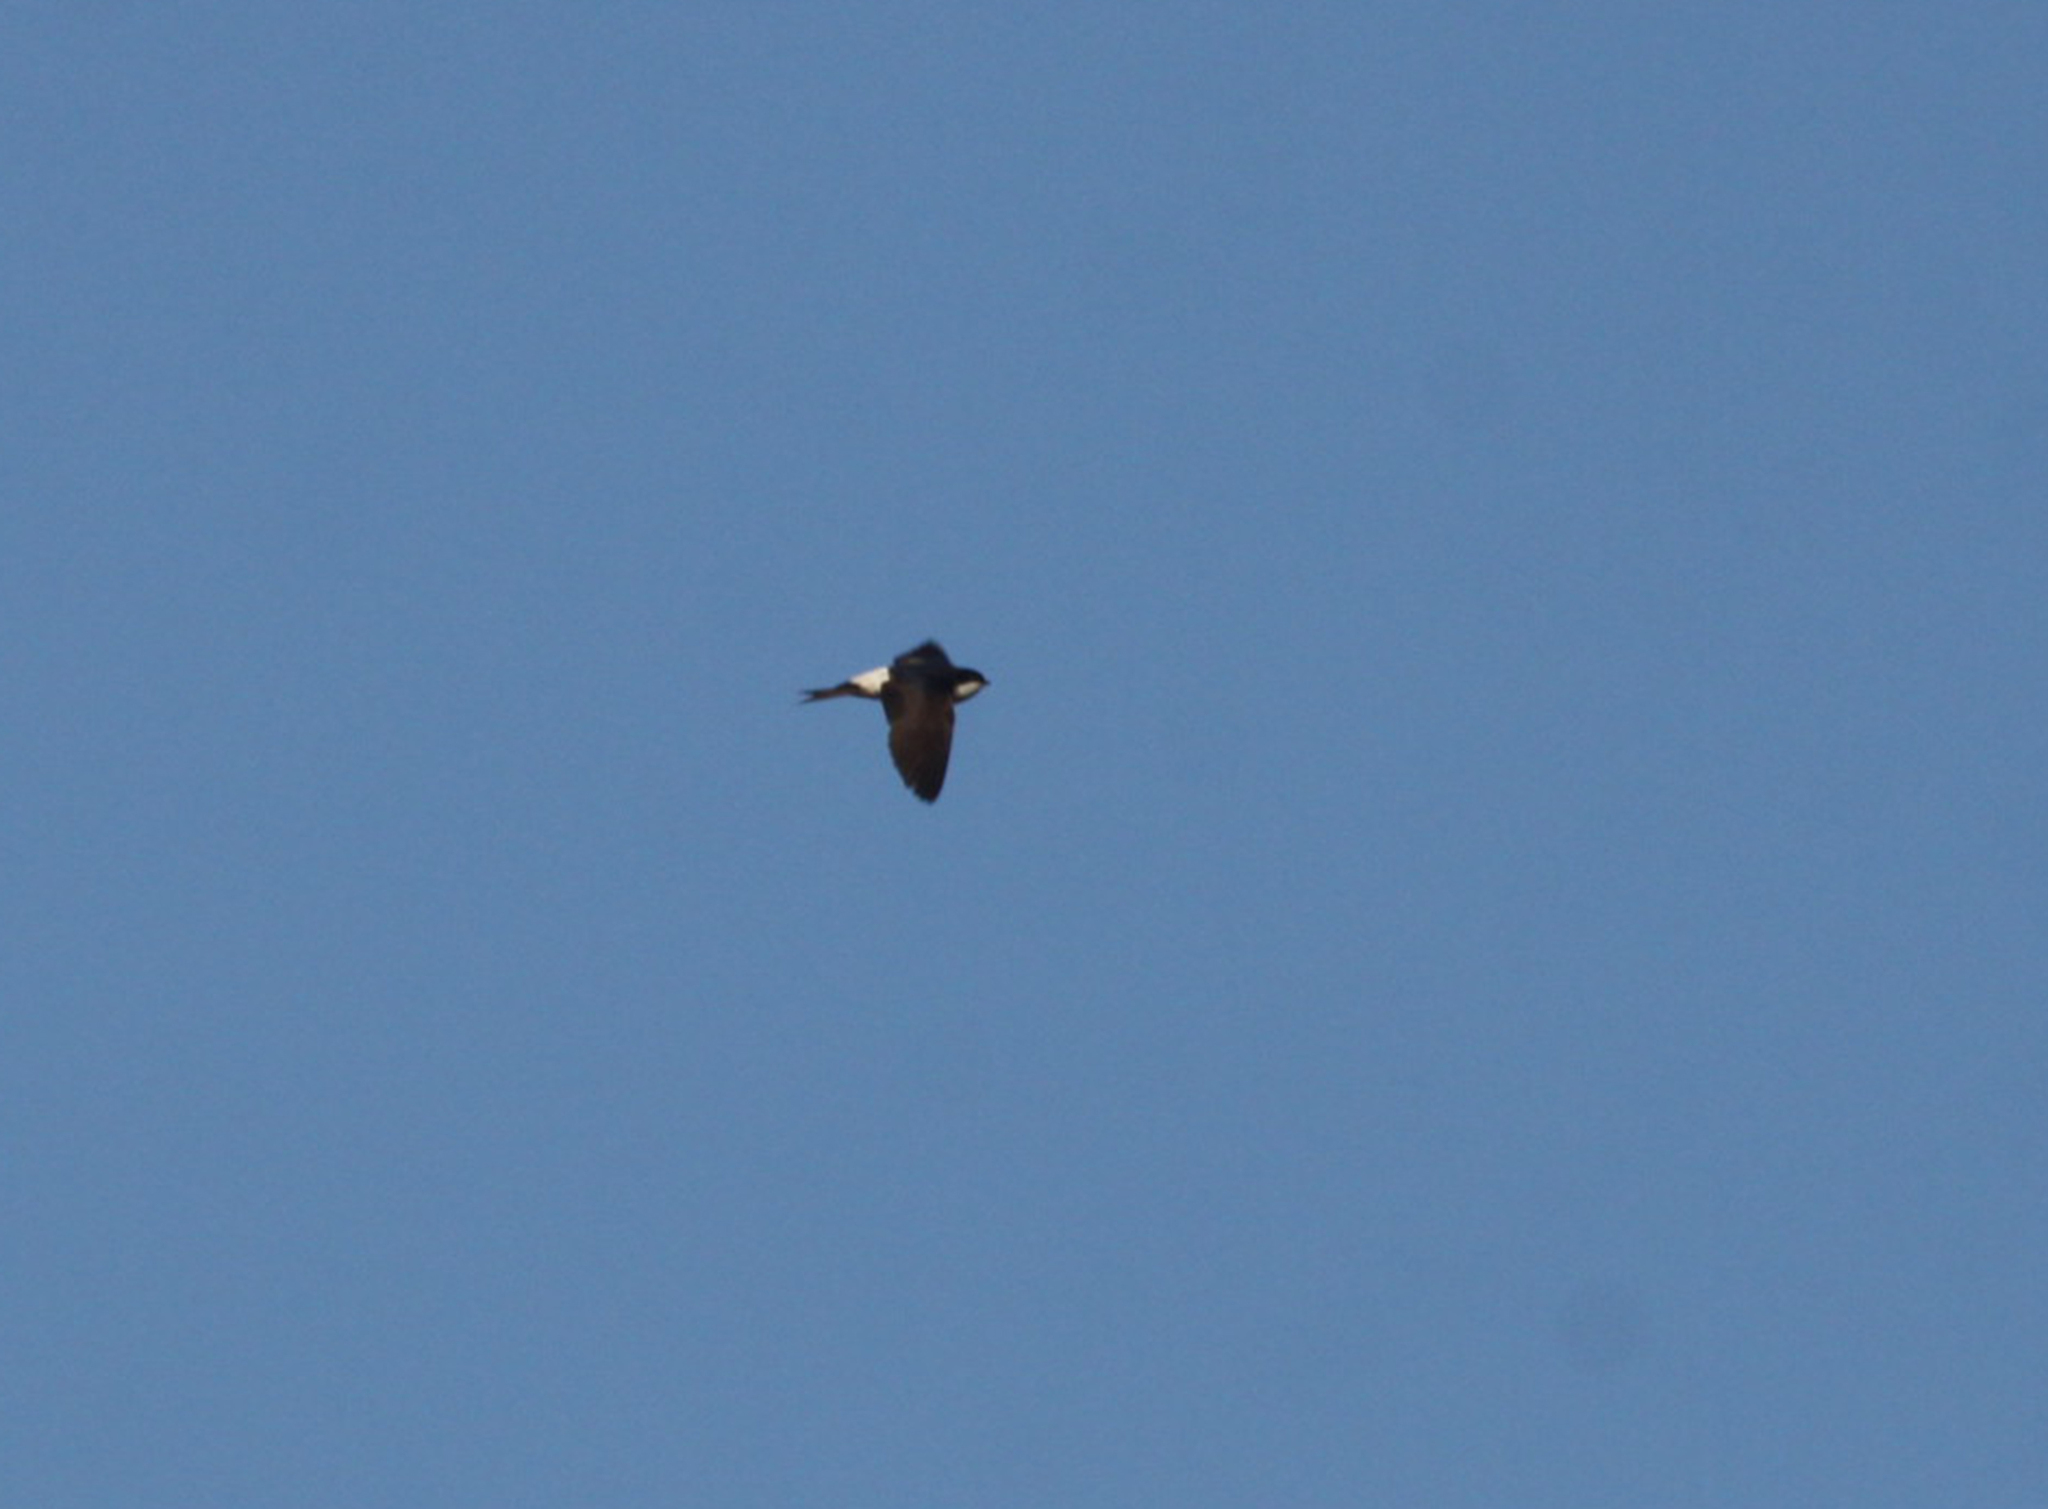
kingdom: Animalia
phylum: Chordata
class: Aves
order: Passeriformes
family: Hirundinidae
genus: Delichon
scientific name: Delichon urbicum
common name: Common house martin
